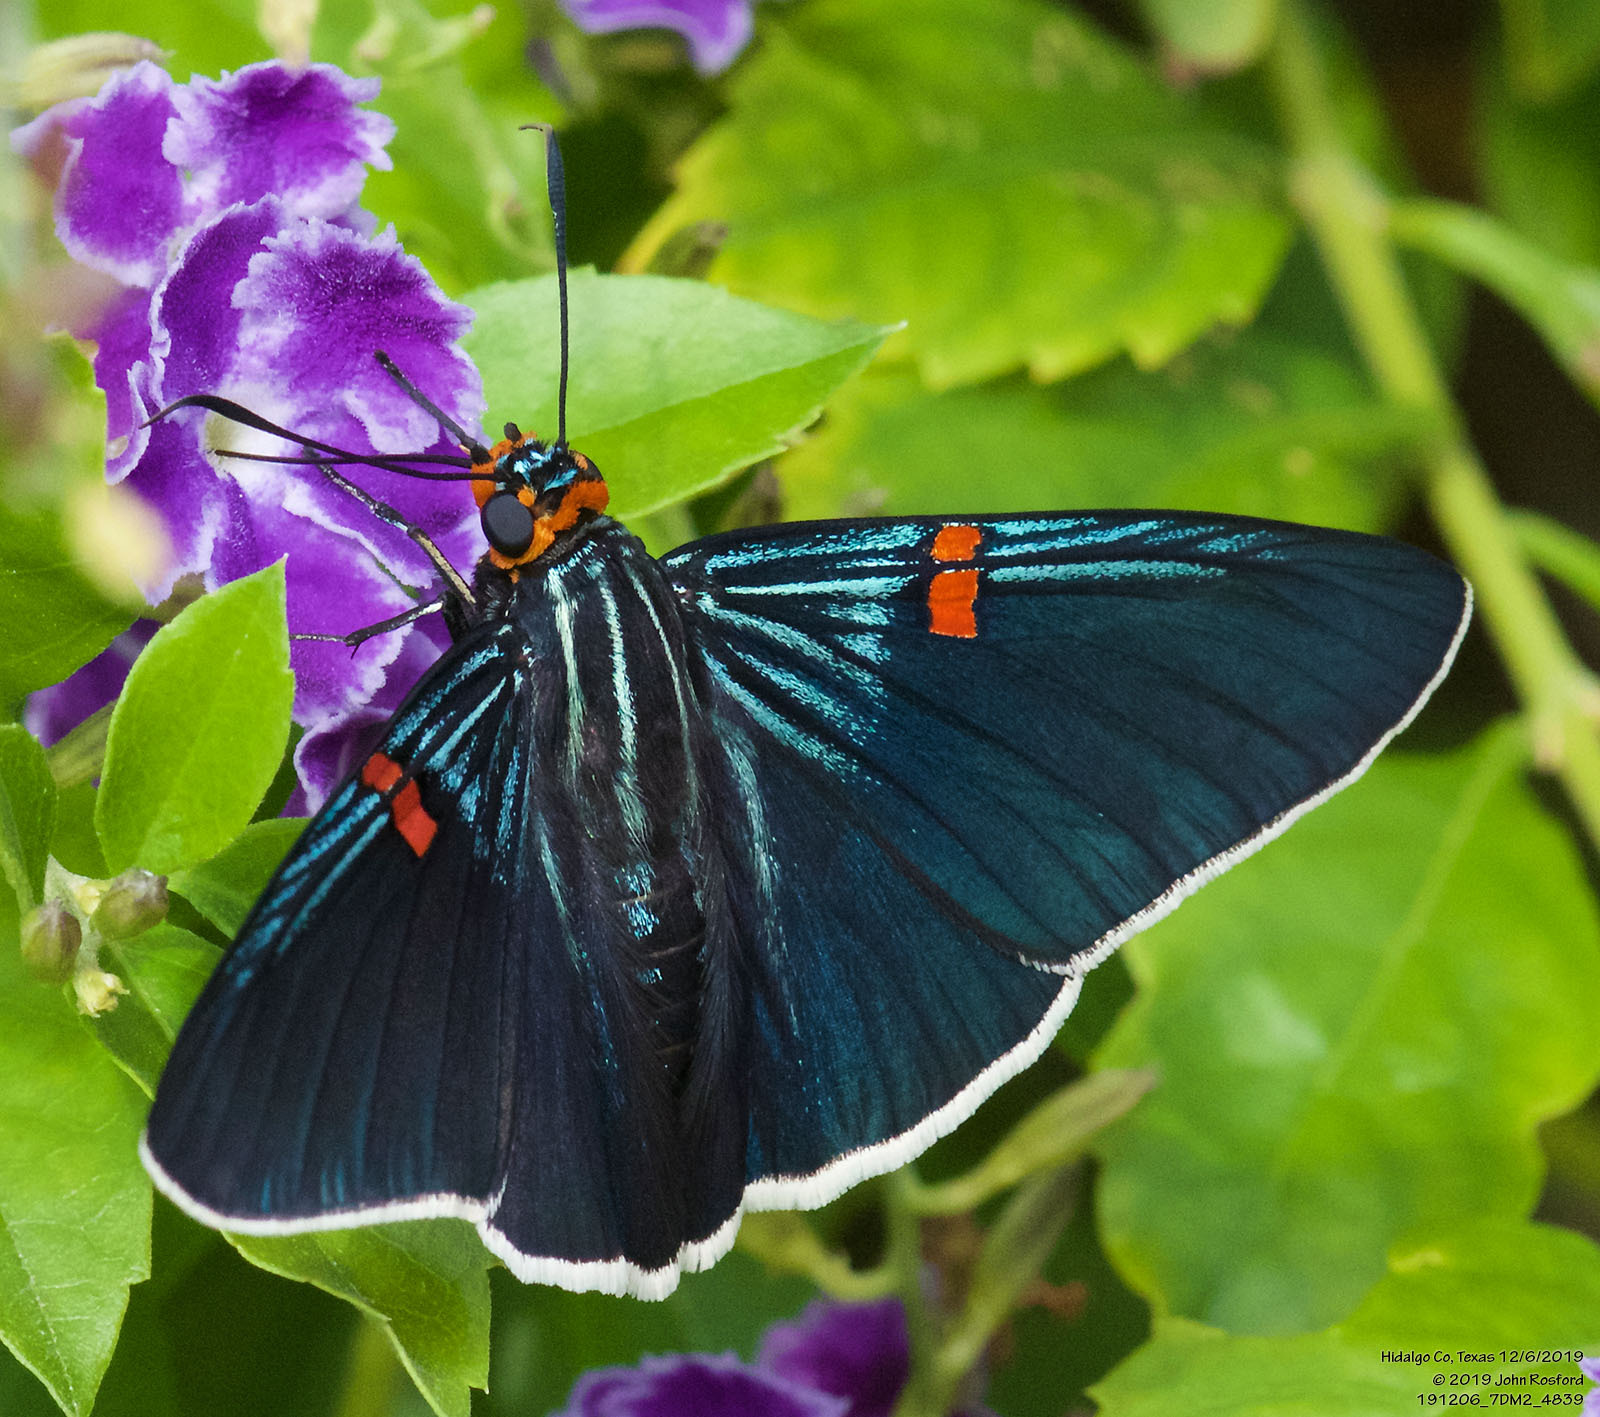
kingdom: Animalia
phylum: Arthropoda
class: Insecta
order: Lepidoptera
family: Hesperiidae
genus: Phocides
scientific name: Phocides lilea
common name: Guava skipper
